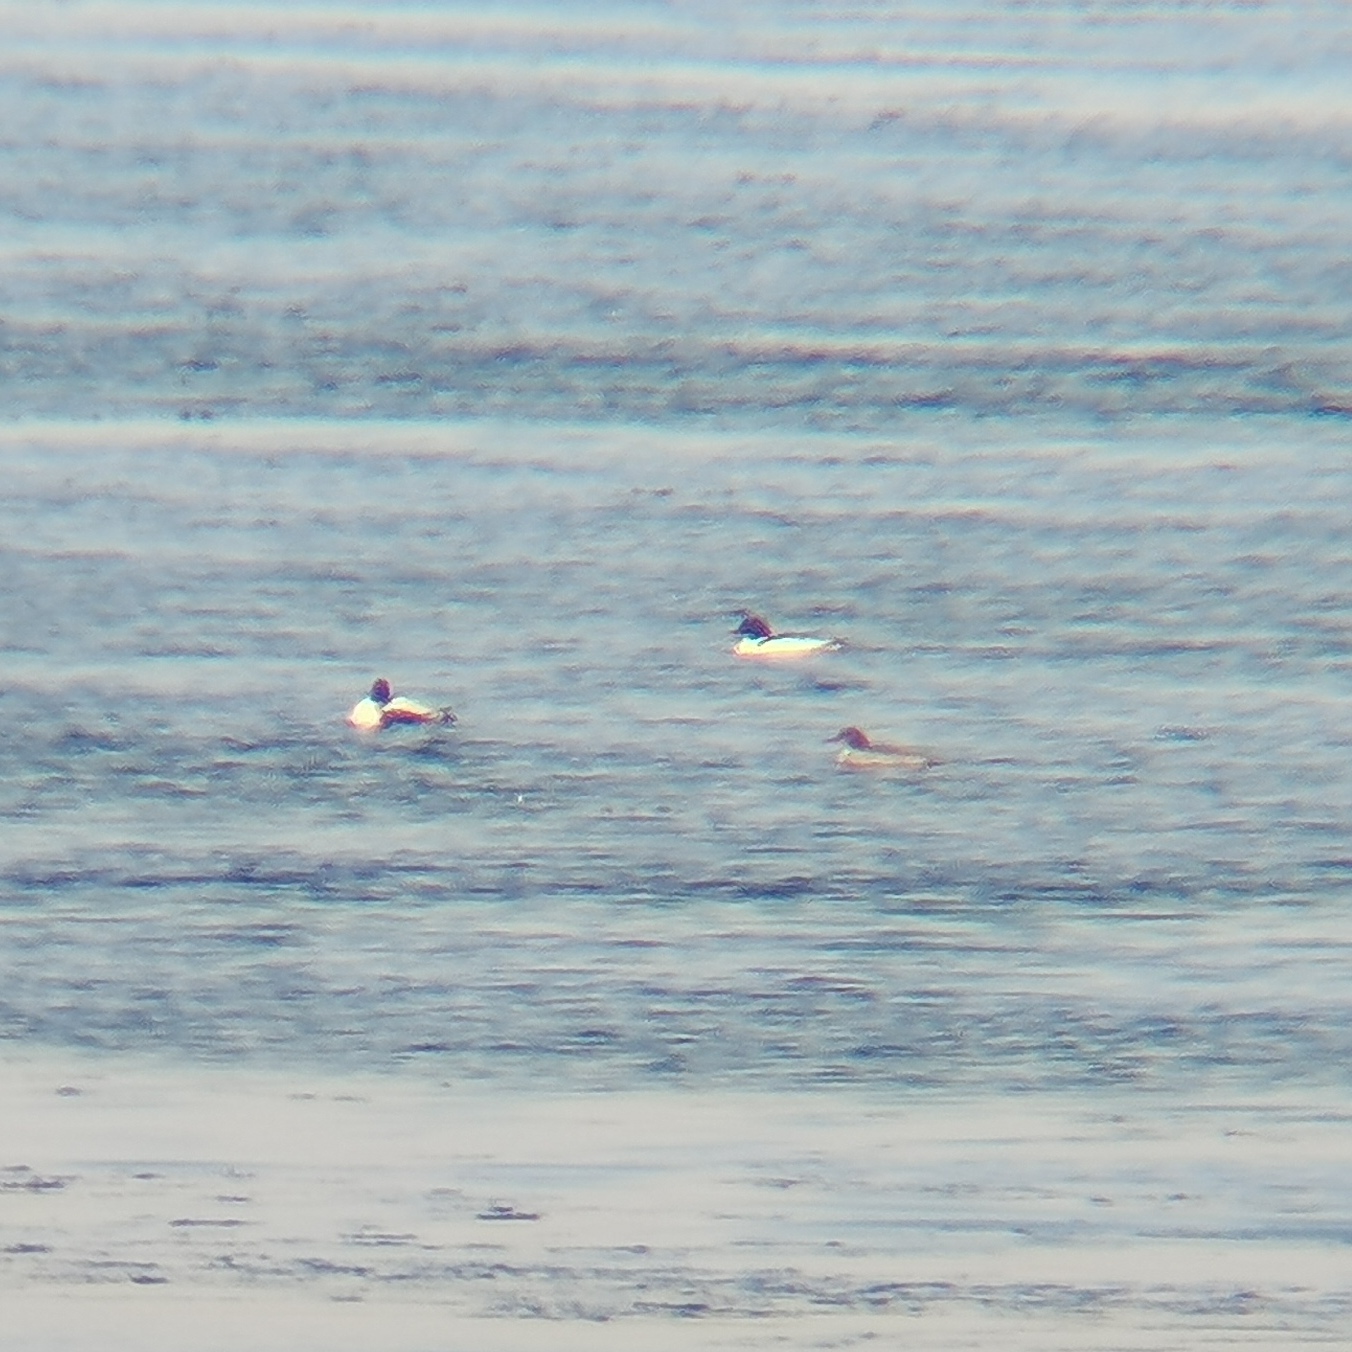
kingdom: Animalia
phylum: Chordata
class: Aves
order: Anseriformes
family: Anatidae
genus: Mergus
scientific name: Mergus merganser
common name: Common merganser
